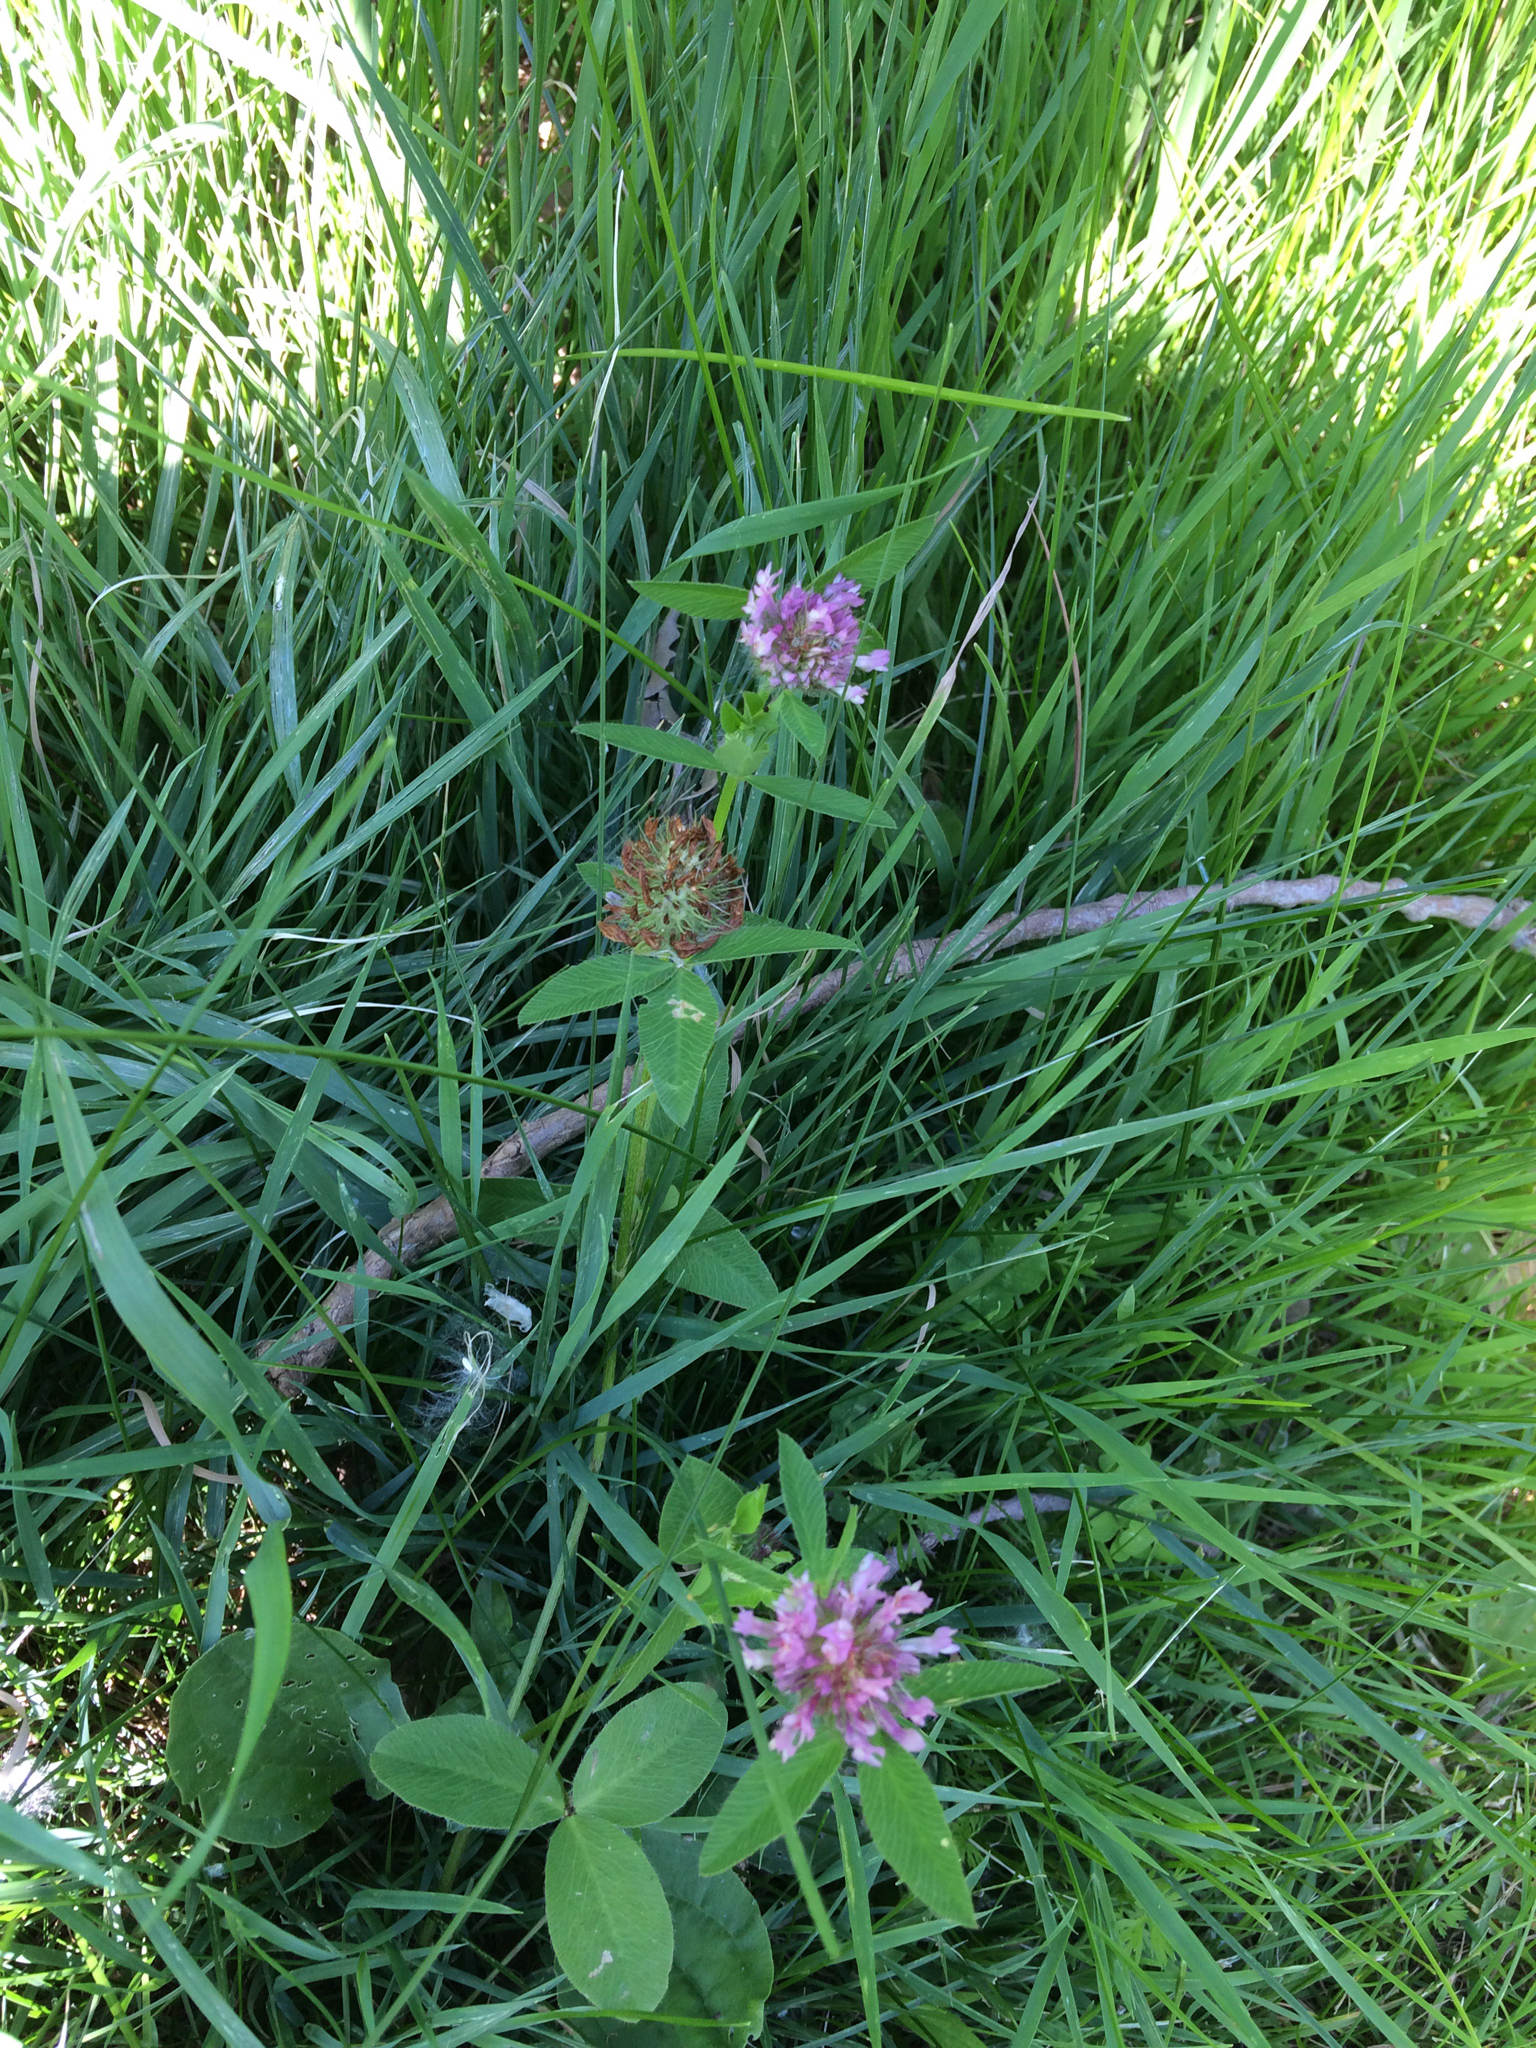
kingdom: Plantae
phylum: Tracheophyta
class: Magnoliopsida
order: Fabales
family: Fabaceae
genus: Trifolium
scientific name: Trifolium pratense
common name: Red clover
